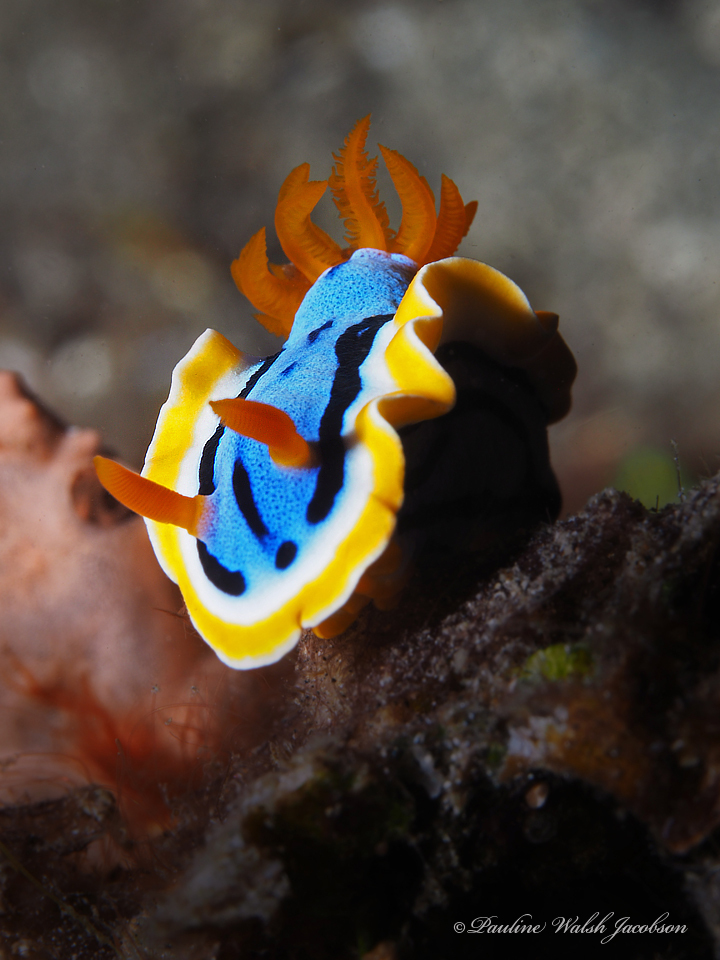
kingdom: Animalia
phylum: Mollusca
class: Gastropoda
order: Nudibranchia
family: Chromodorididae
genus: Chromodoris
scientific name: Chromodoris annae
